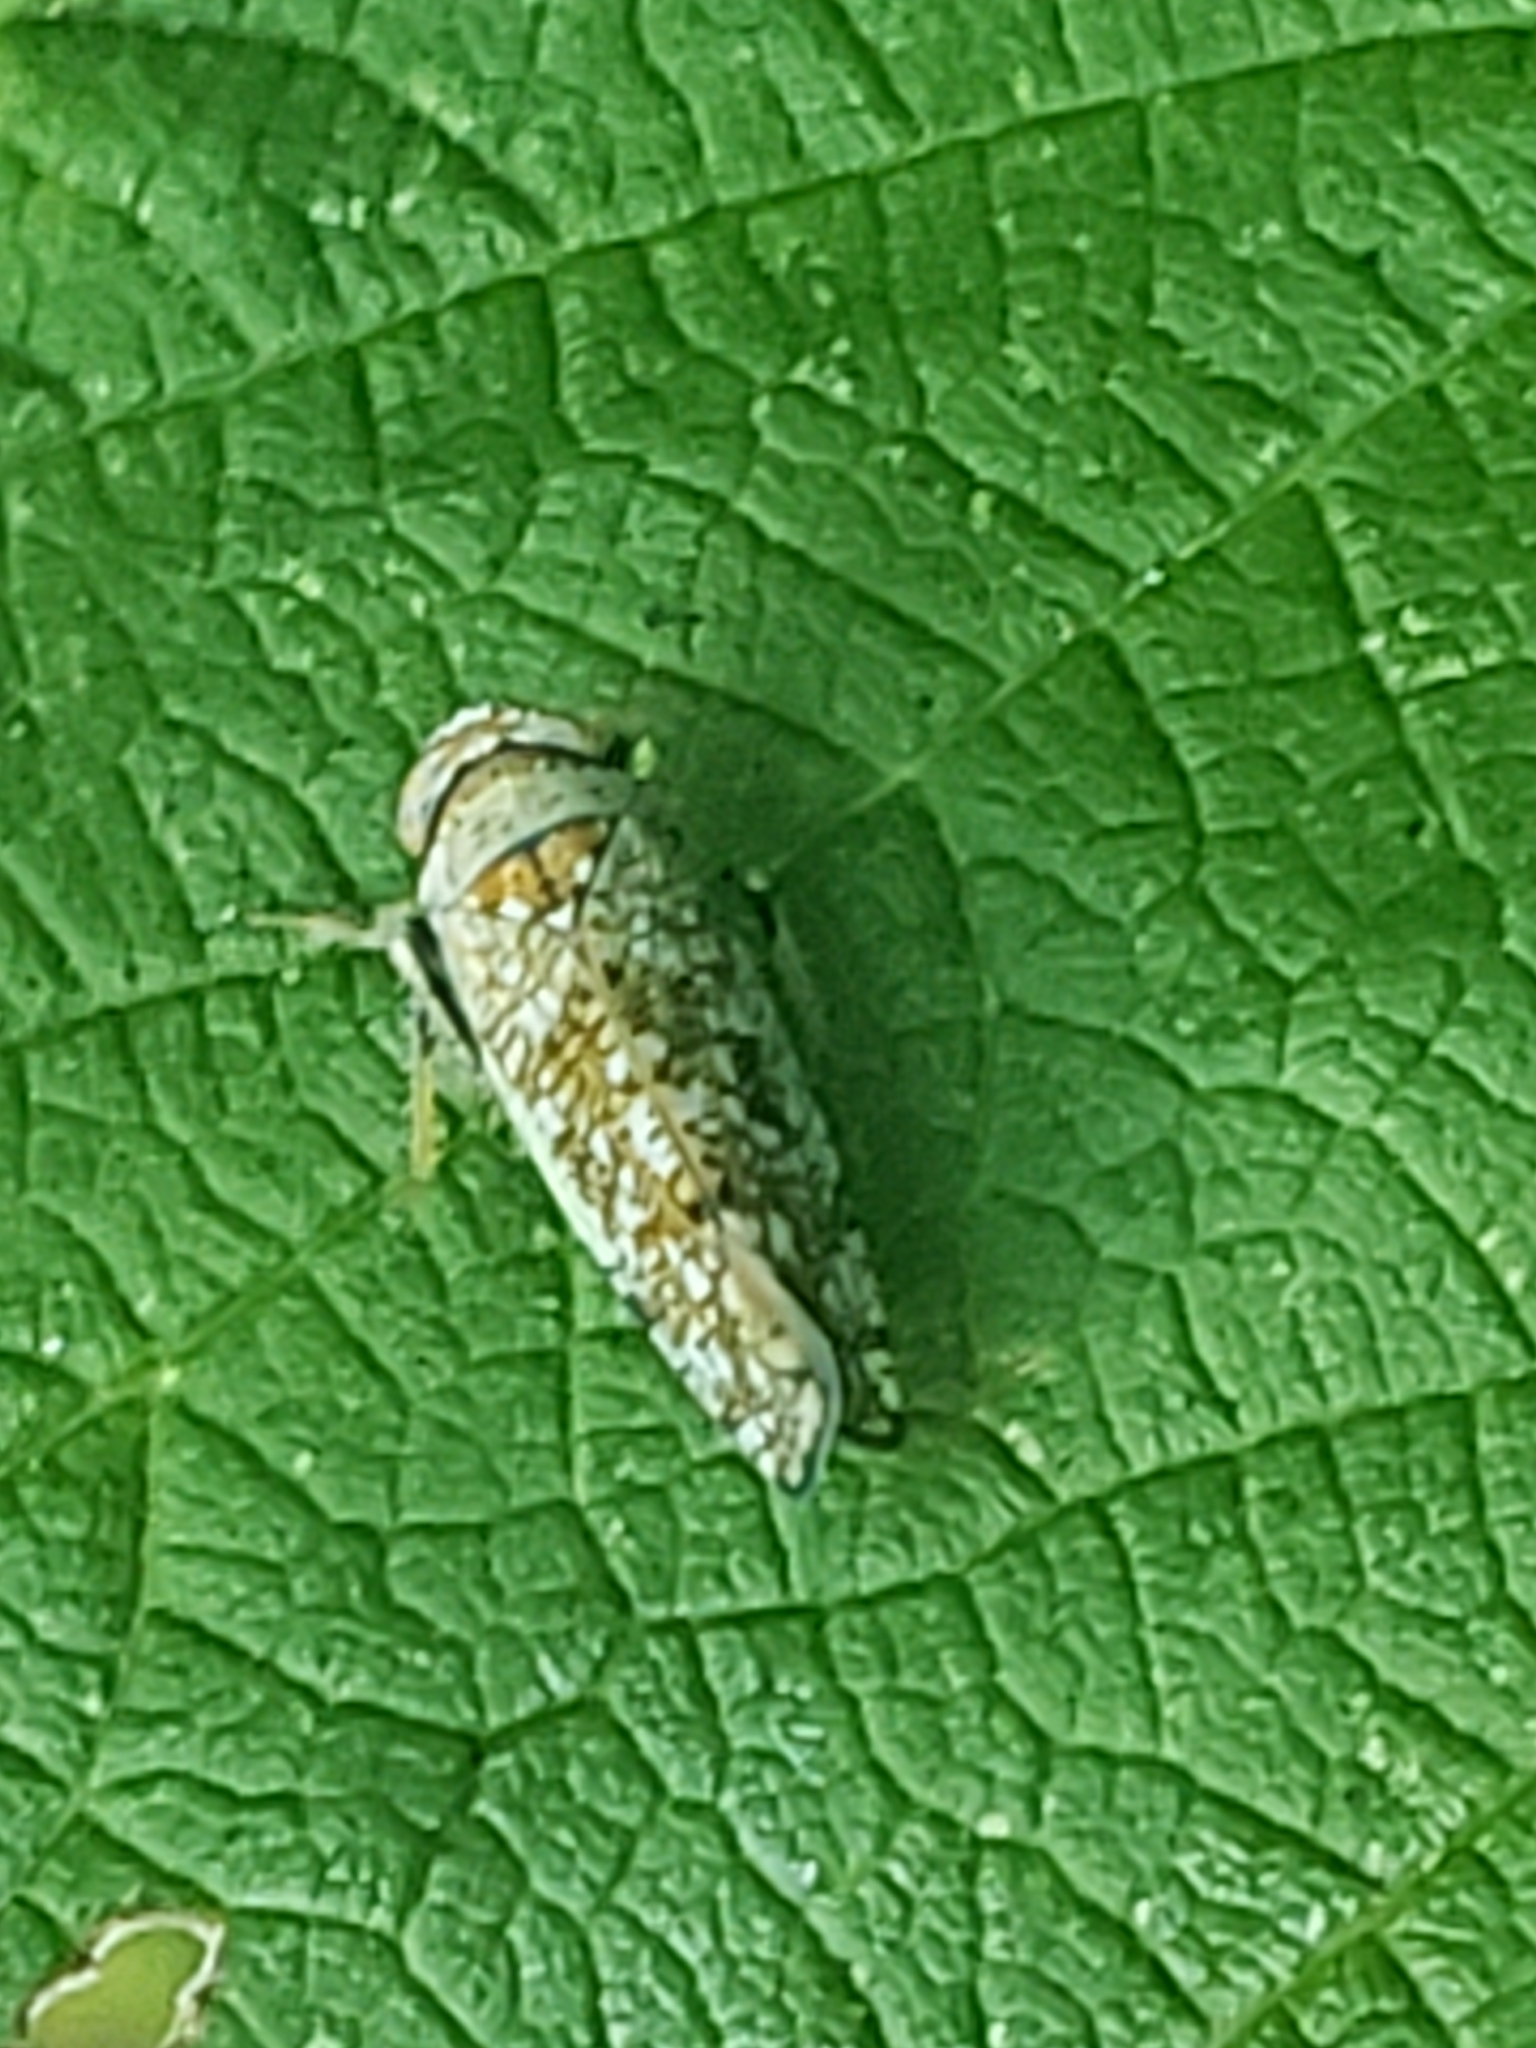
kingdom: Animalia
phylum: Arthropoda
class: Insecta
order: Hemiptera
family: Cicadellidae
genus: Orientus
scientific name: Orientus ishidae
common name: Japanese leafhopper
